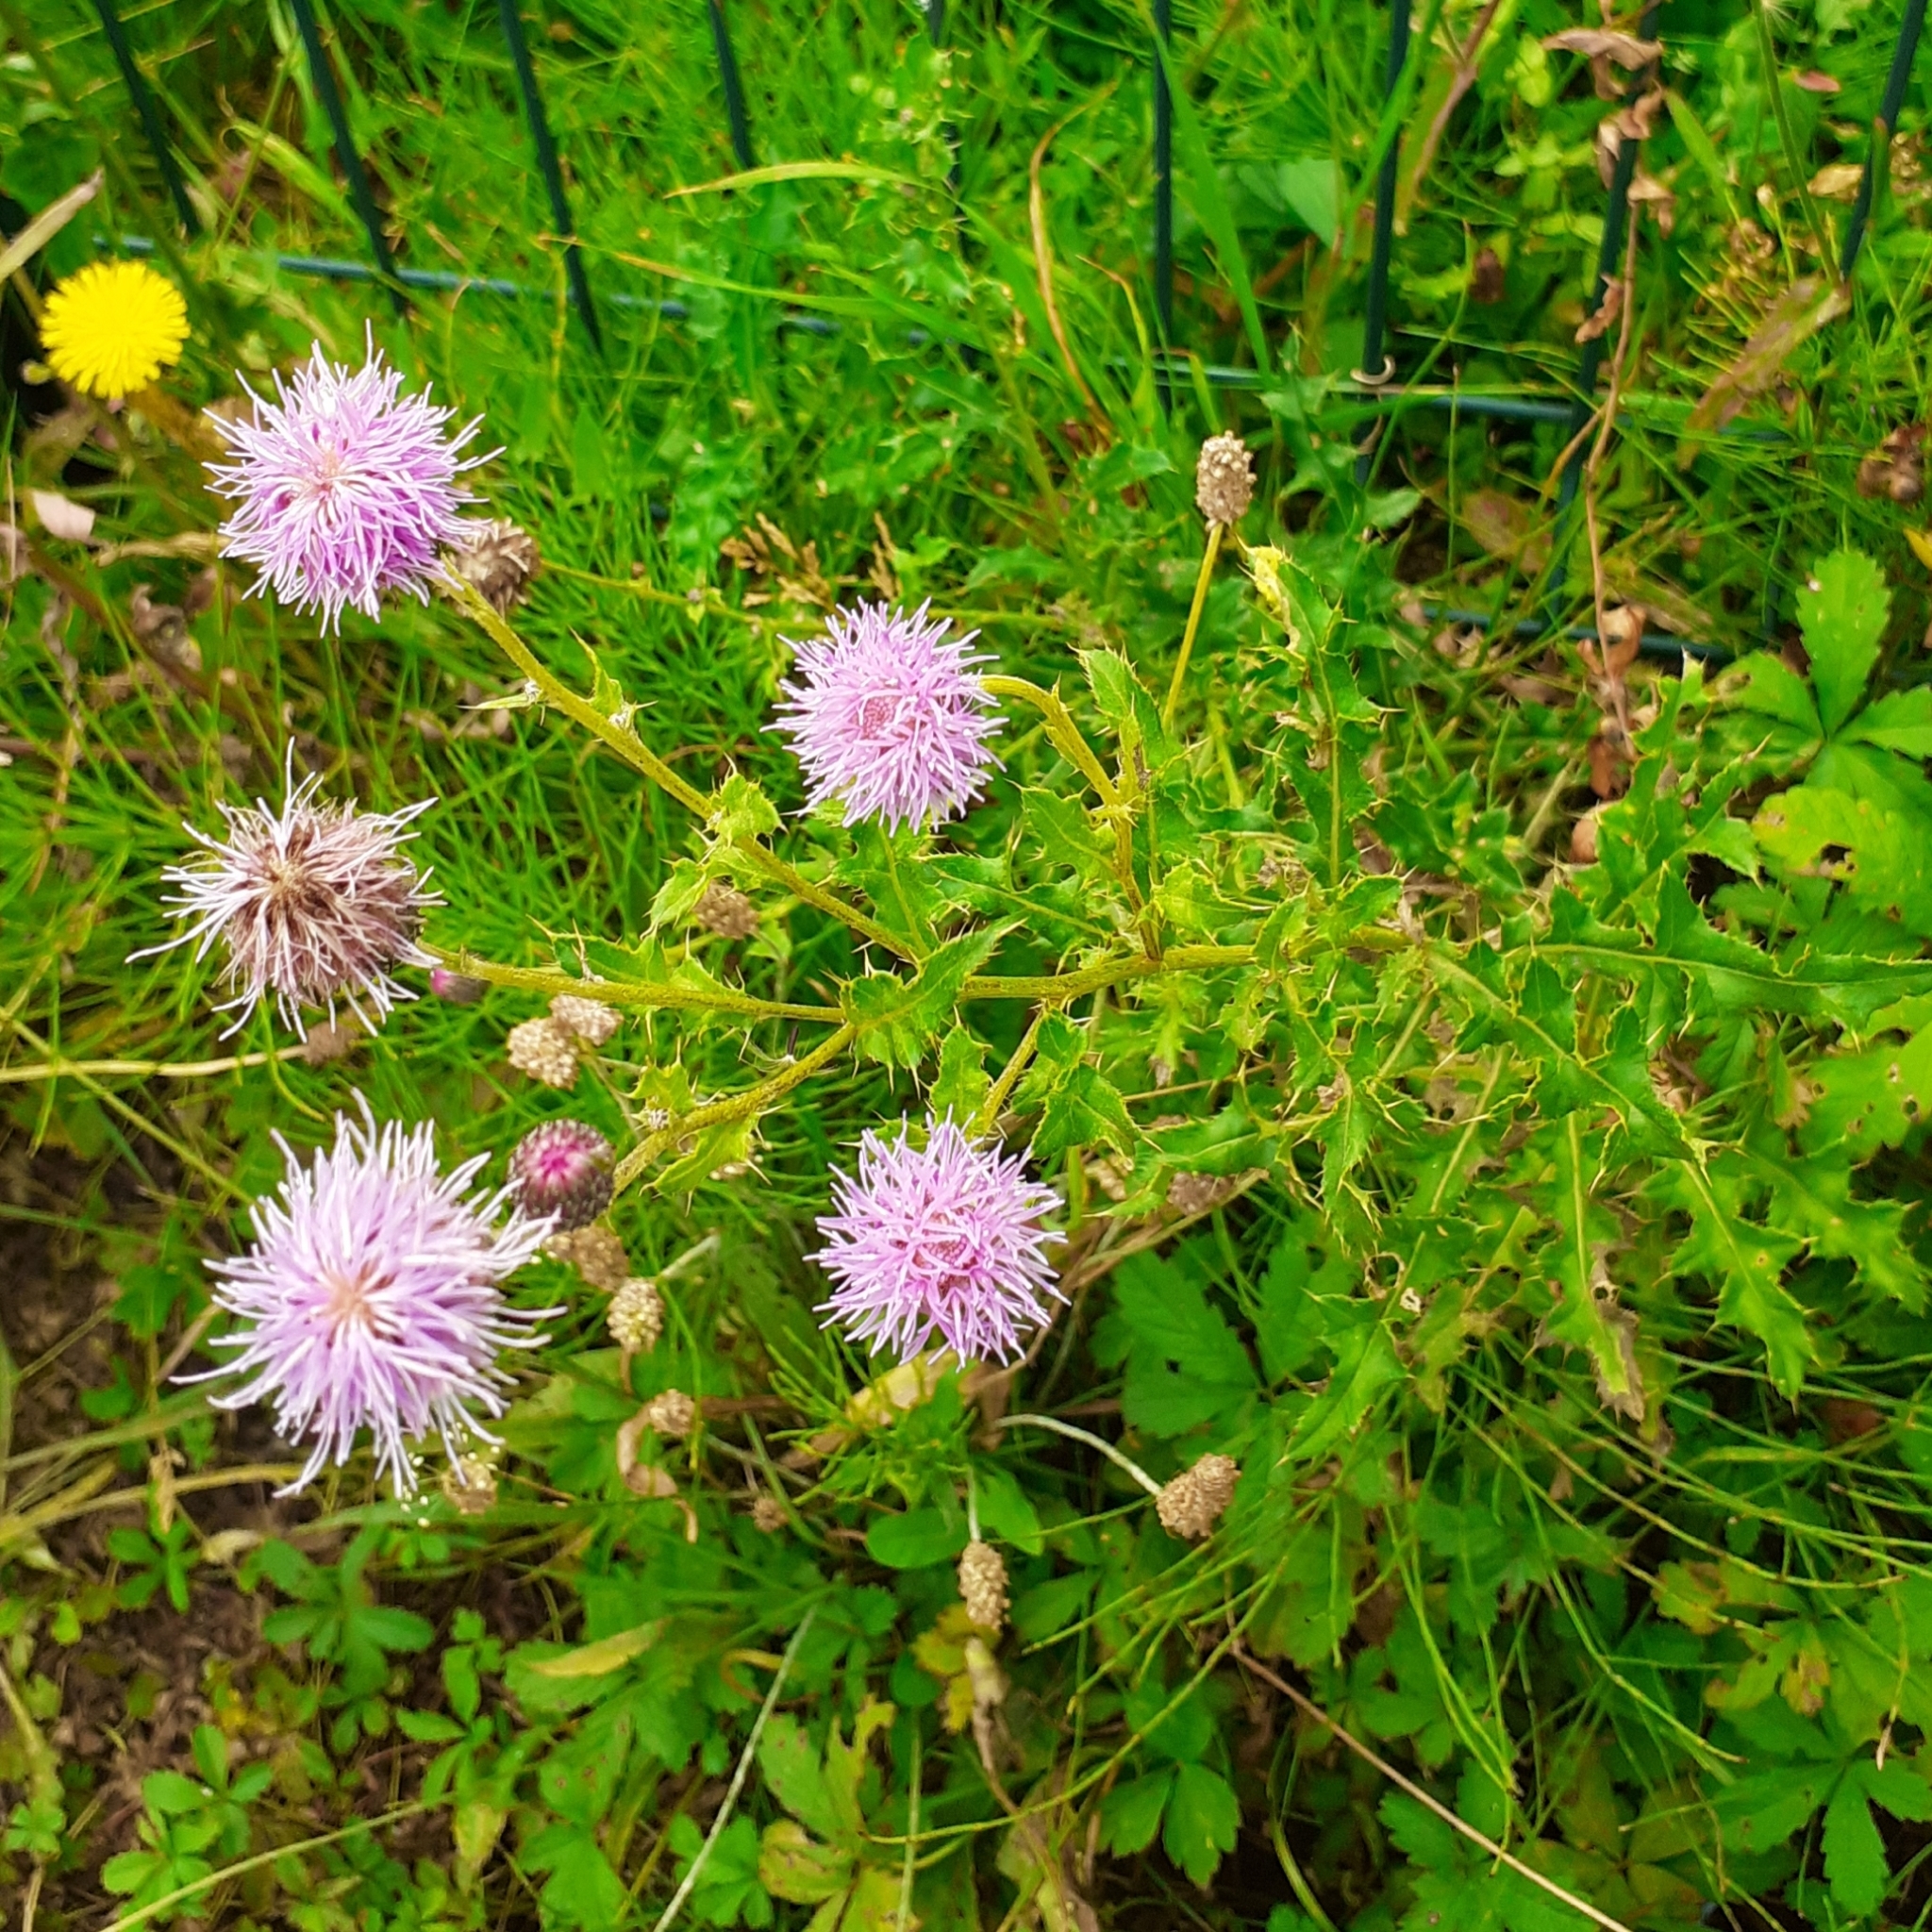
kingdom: Plantae
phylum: Tracheophyta
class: Magnoliopsida
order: Asterales
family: Asteraceae
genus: Cirsium
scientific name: Cirsium arvense
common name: Creeping thistle
